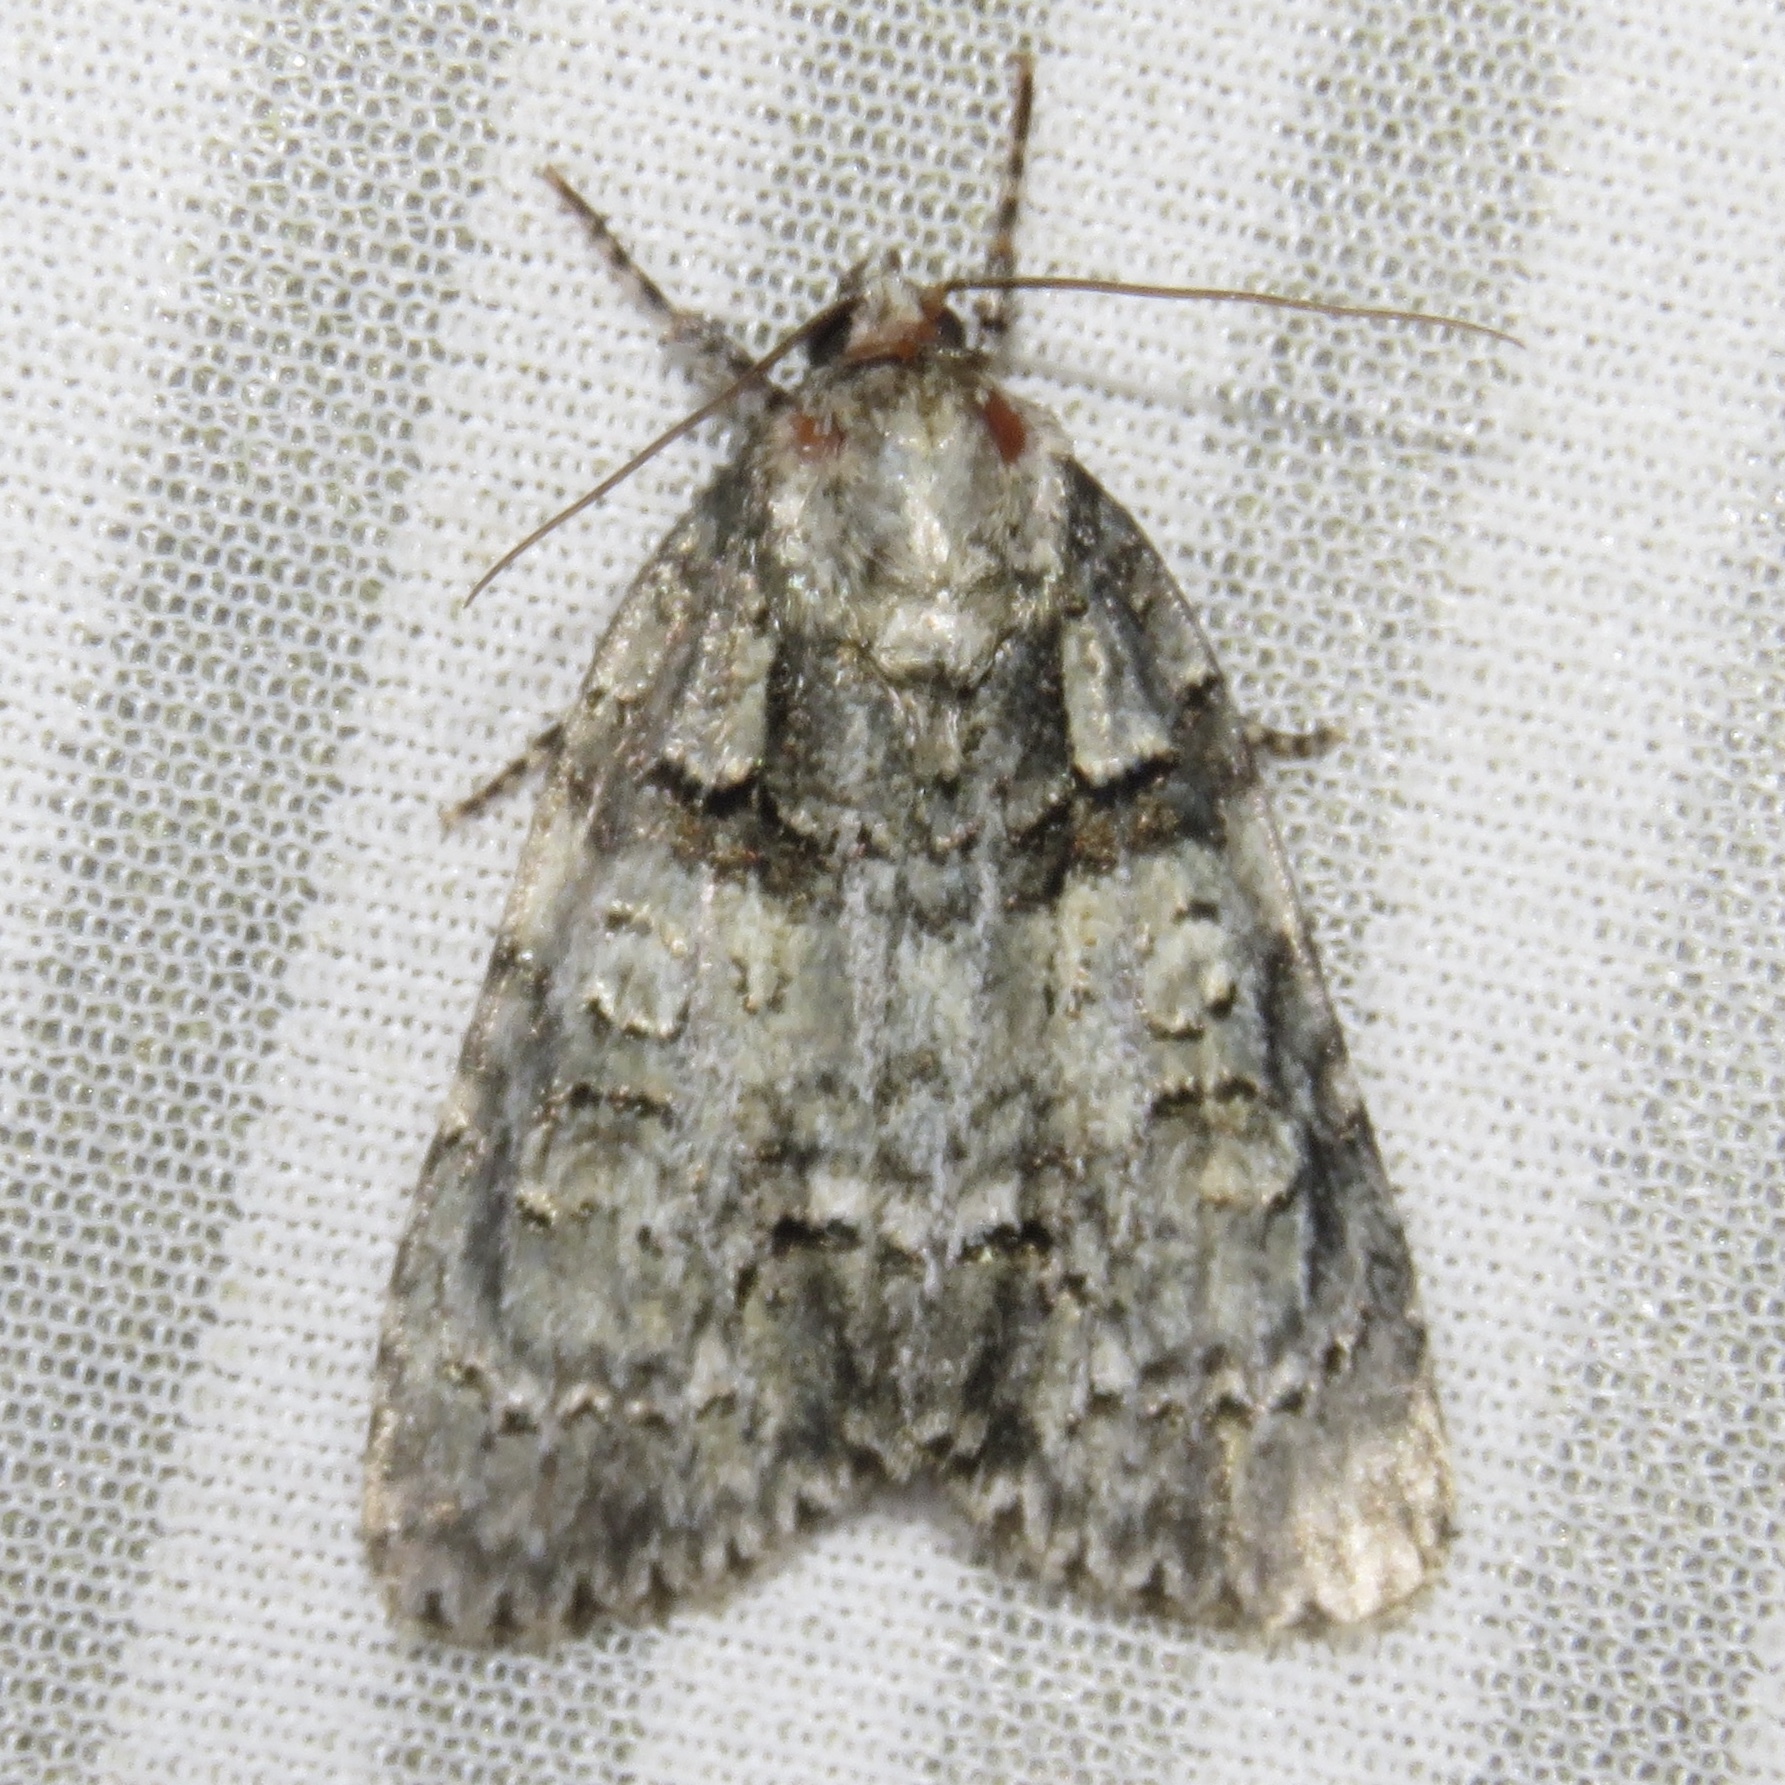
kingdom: Animalia
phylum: Arthropoda
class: Insecta
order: Lepidoptera
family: Noctuidae
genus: Acronicta
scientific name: Acronicta increta
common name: Eclipsed oak dagger
